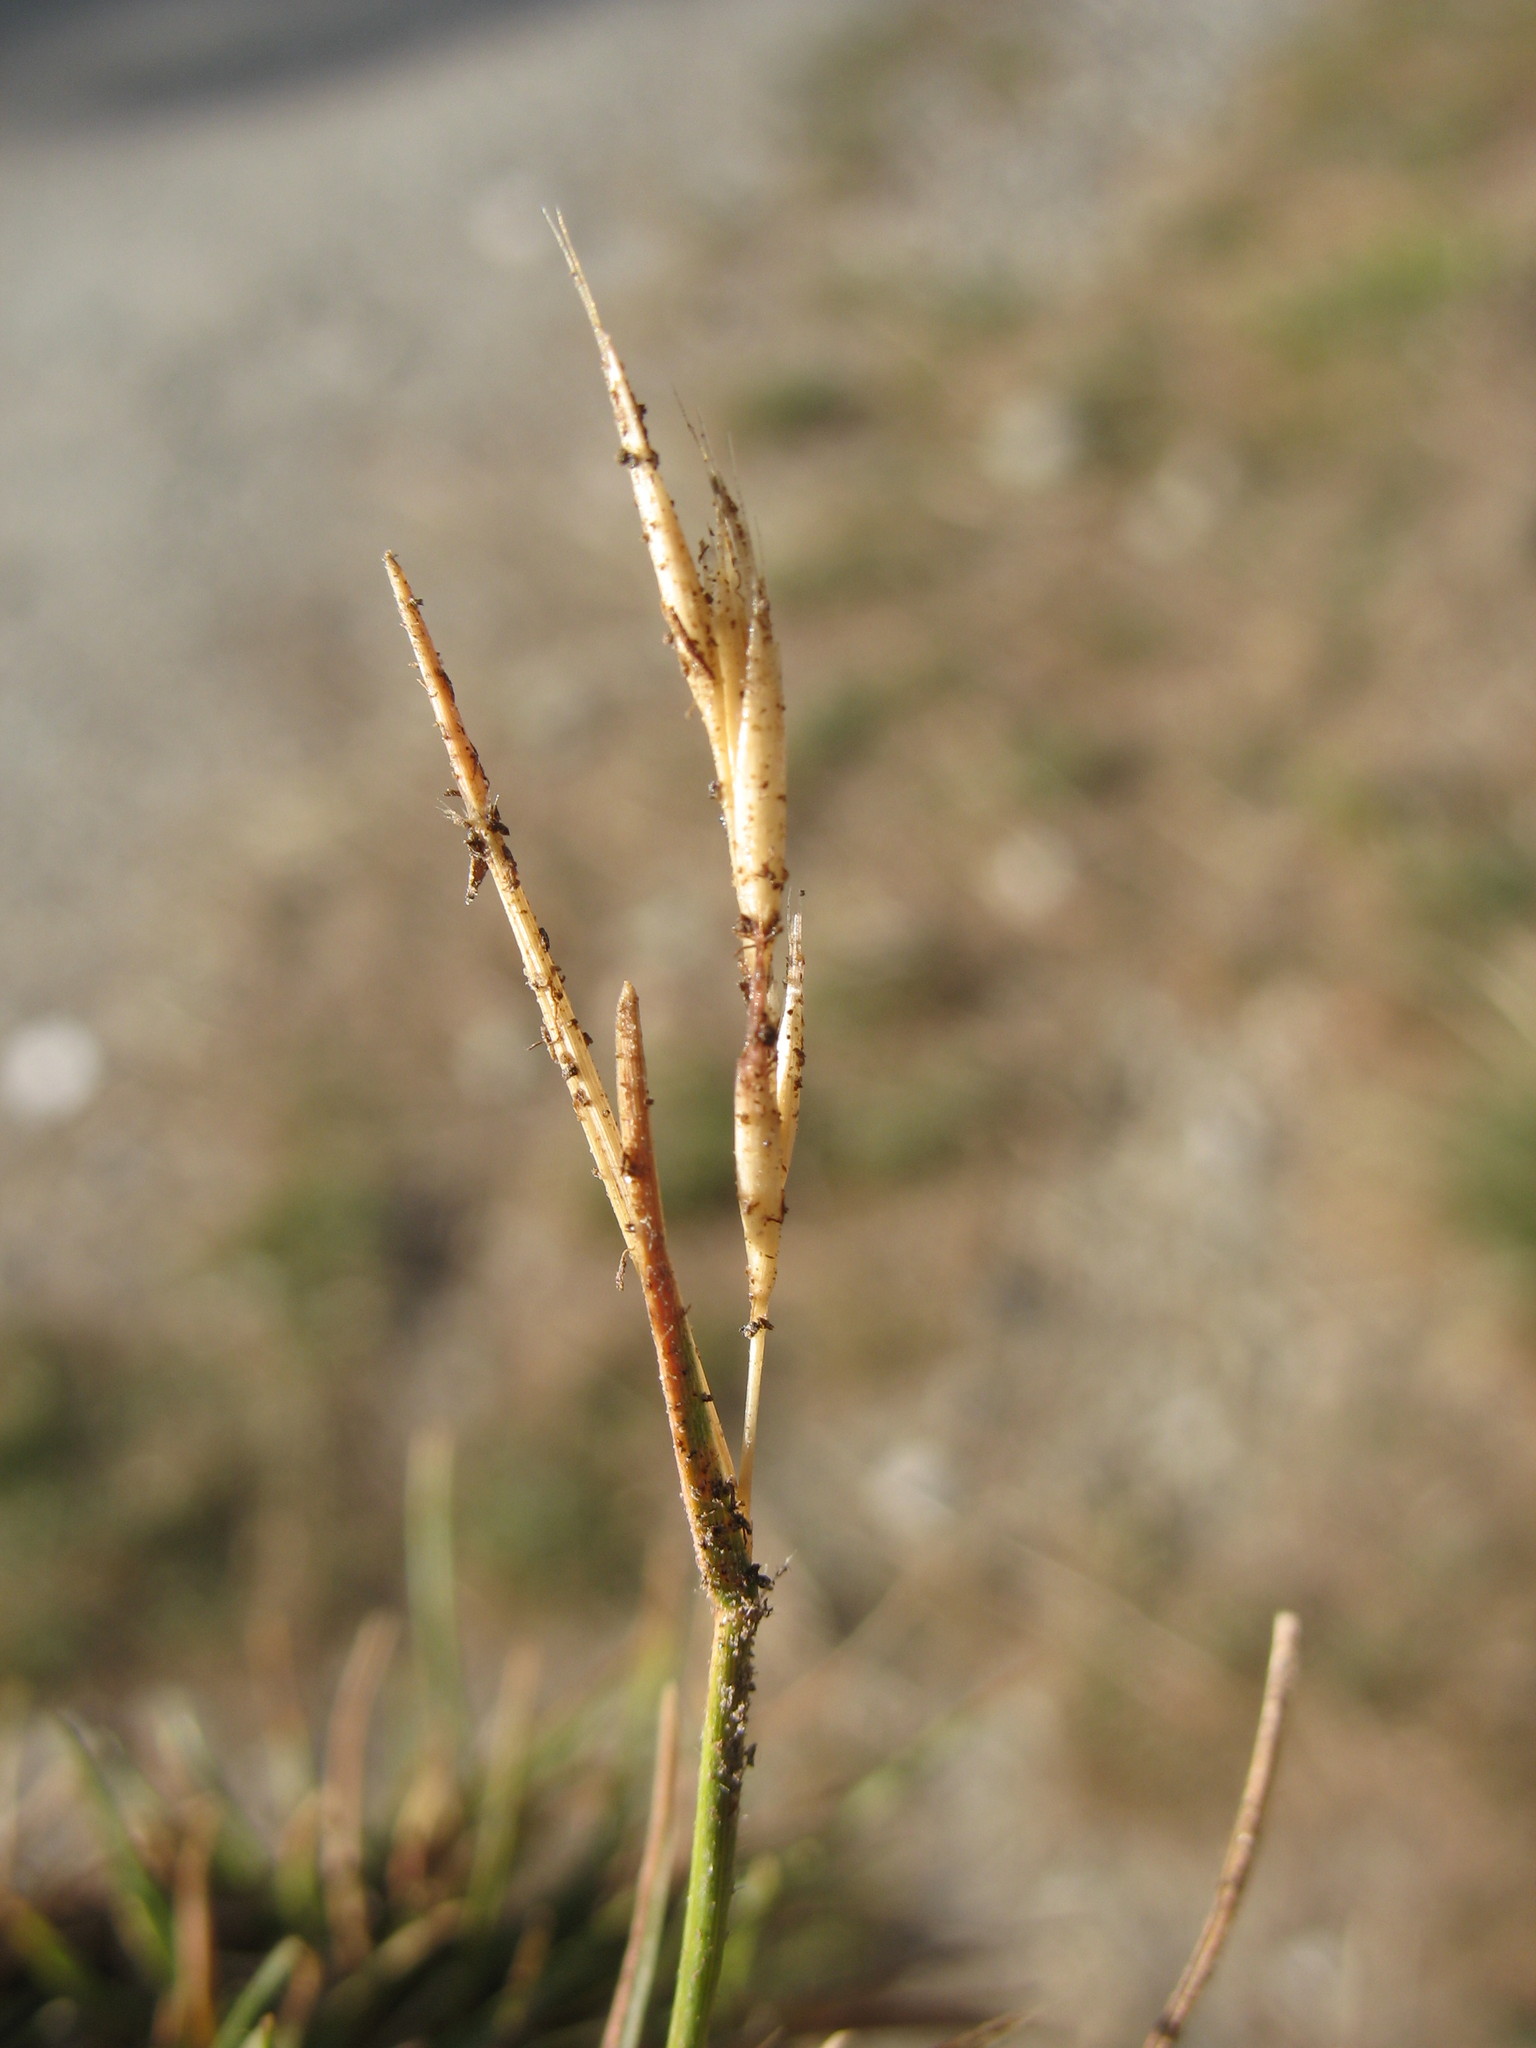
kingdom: Plantae
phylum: Tracheophyta
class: Liliopsida
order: Poales
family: Poaceae
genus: Rytidosperma
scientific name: Rytidosperma clavatum
